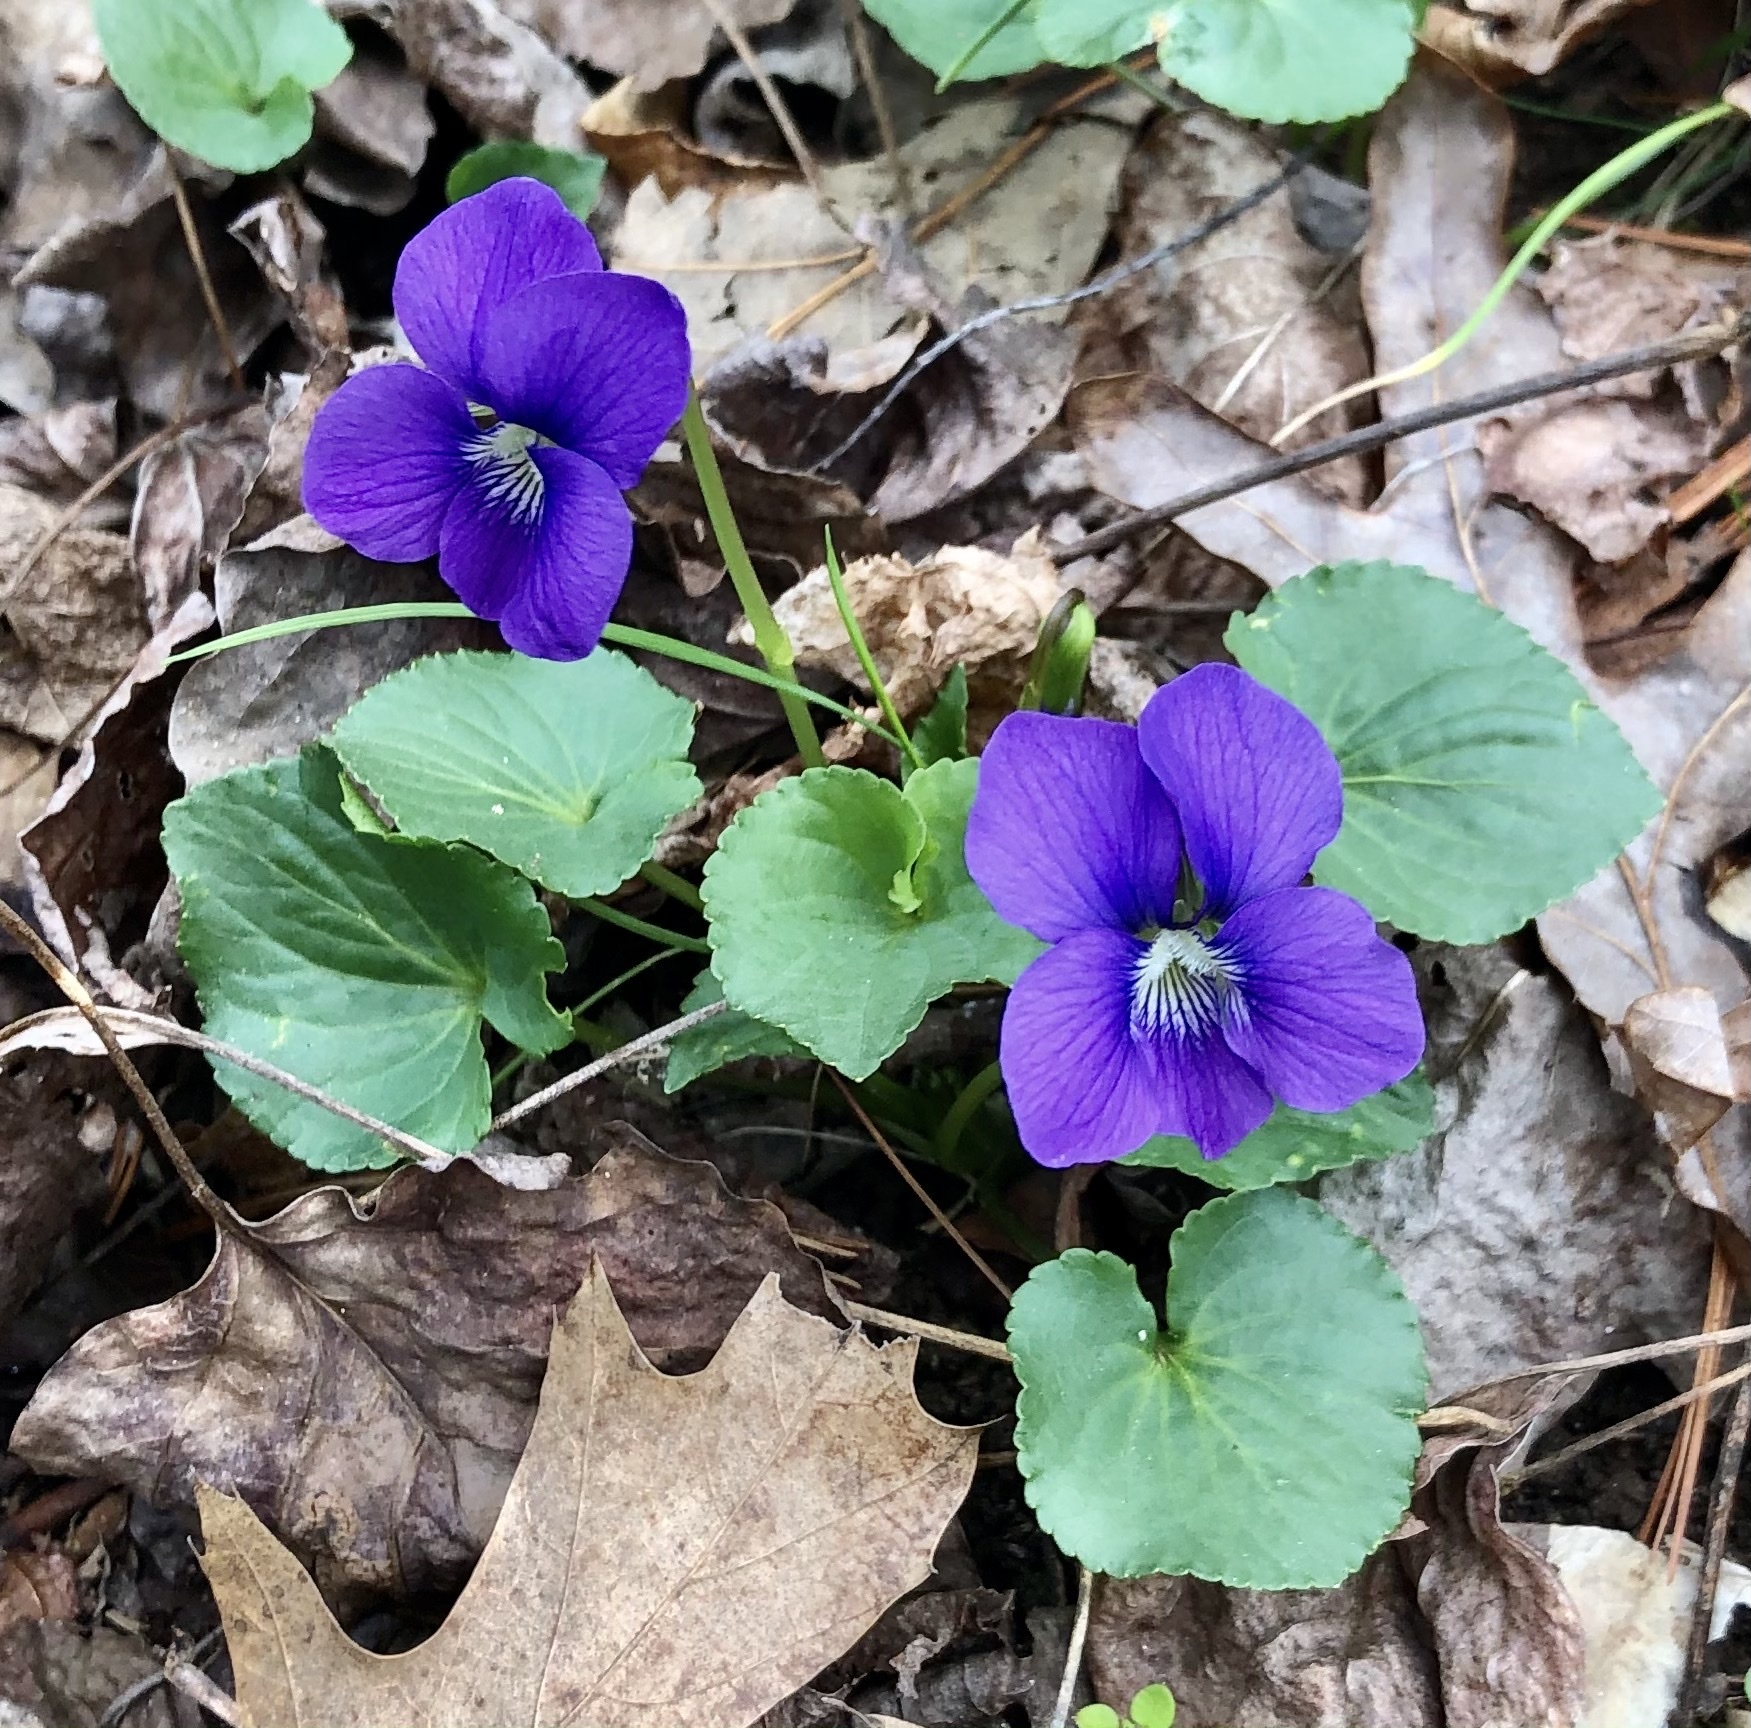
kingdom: Plantae
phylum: Tracheophyta
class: Magnoliopsida
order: Malpighiales
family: Violaceae
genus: Viola
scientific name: Viola sororia
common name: Dooryard violet
